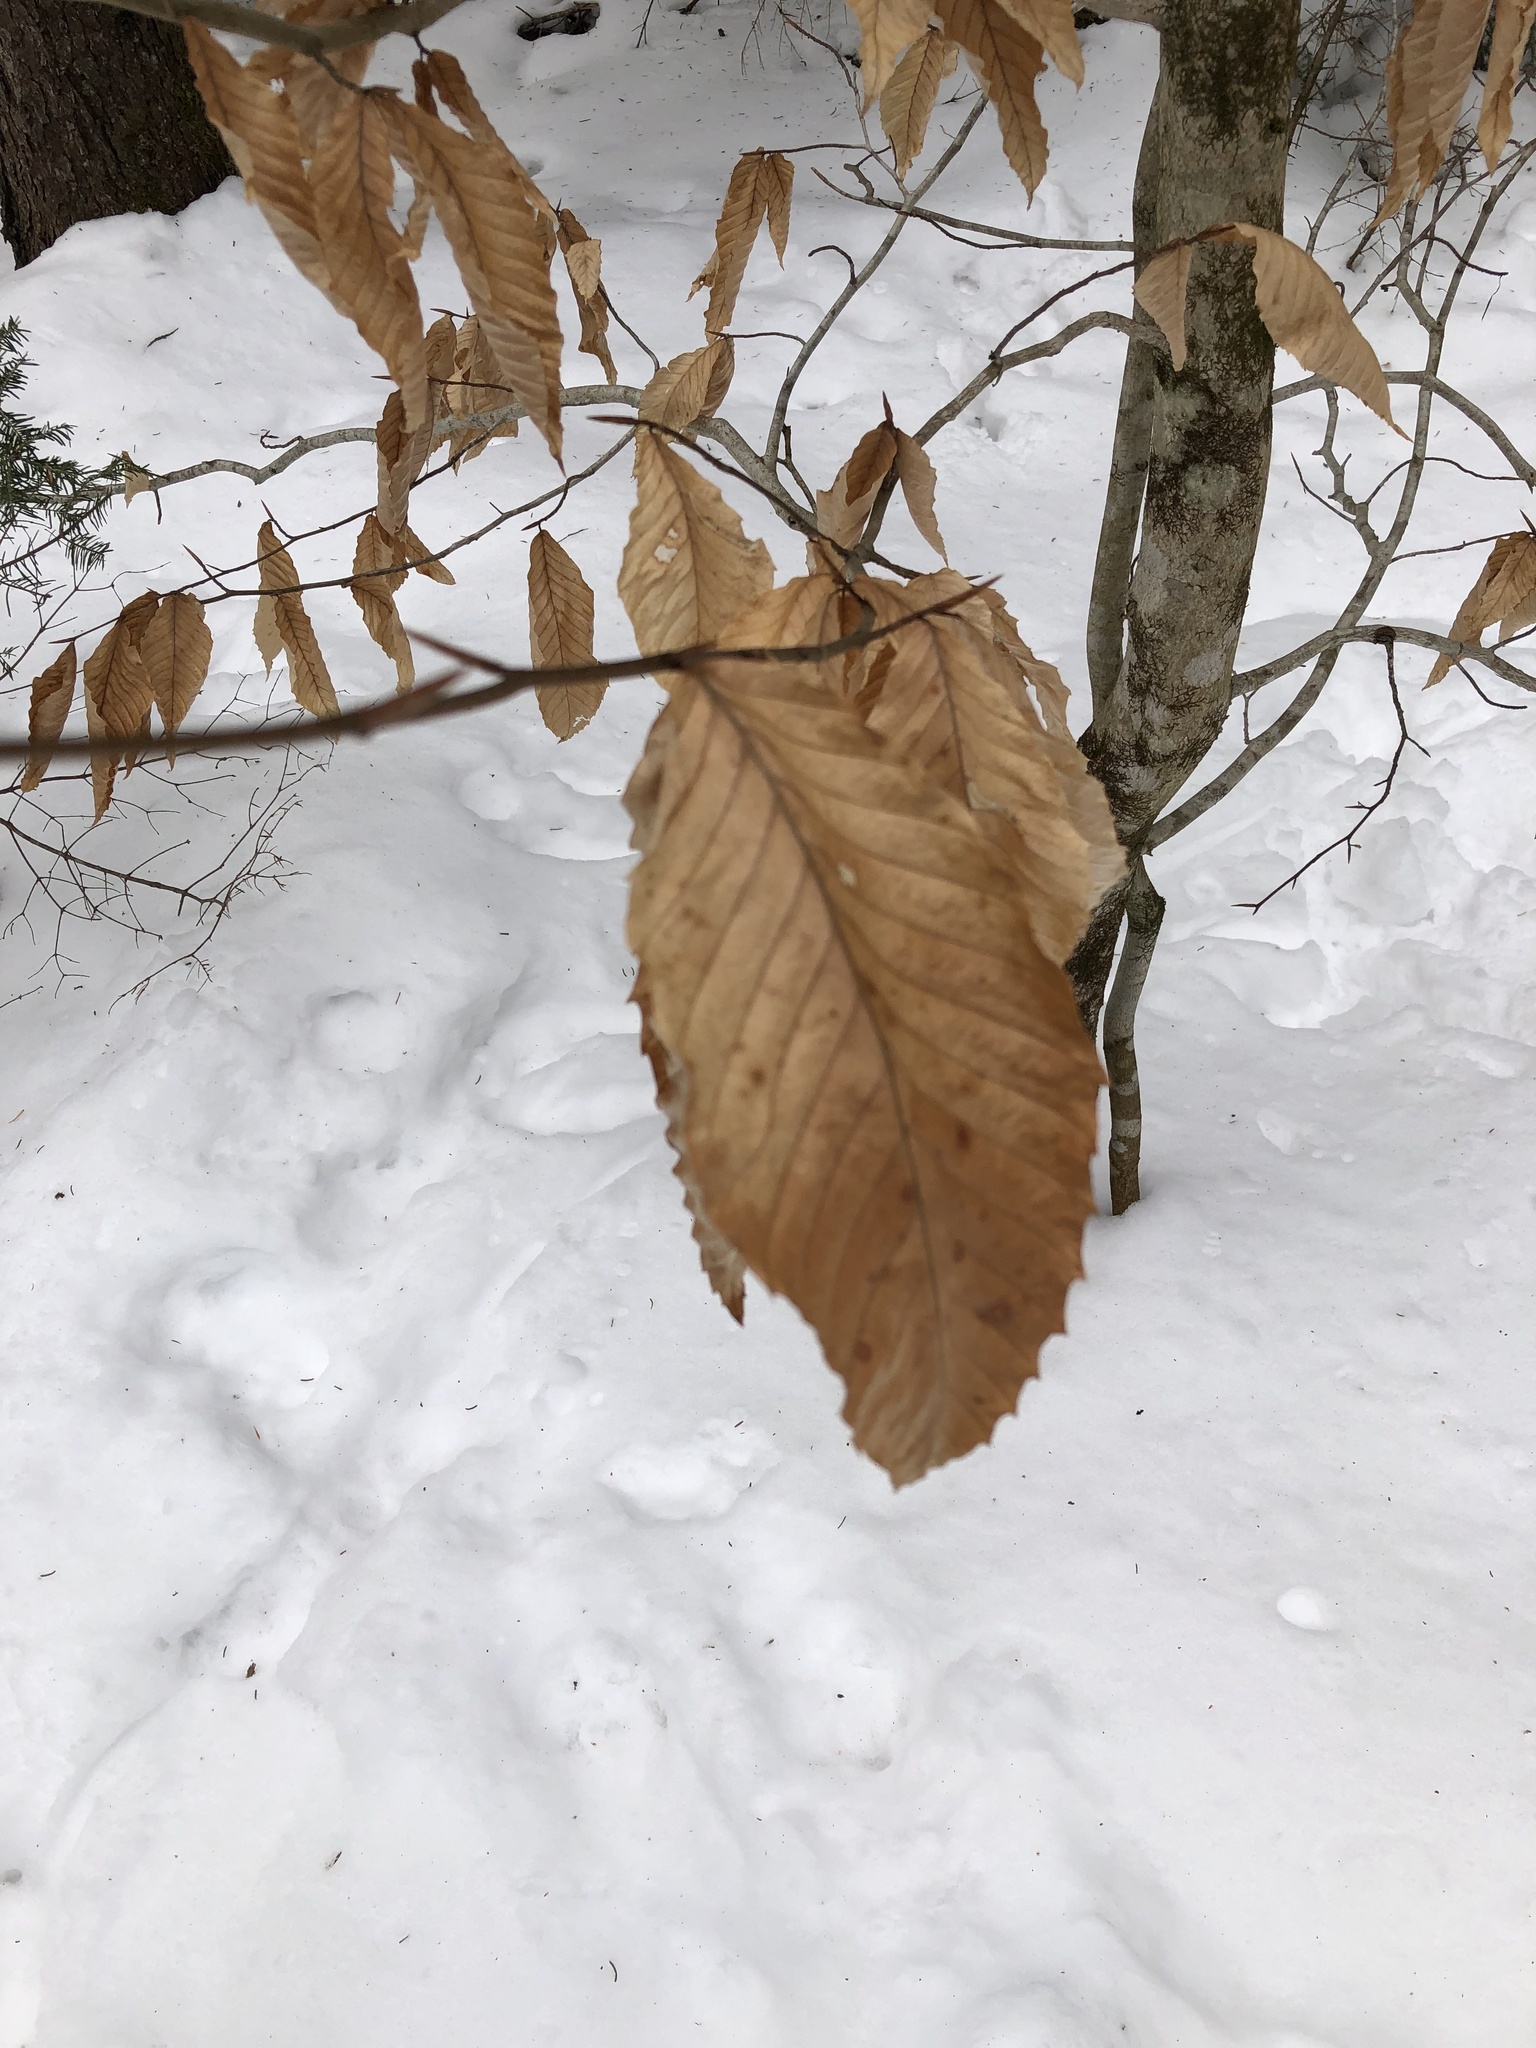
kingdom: Plantae
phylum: Tracheophyta
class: Magnoliopsida
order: Fagales
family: Fagaceae
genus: Fagus
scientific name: Fagus grandifolia
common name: American beech
